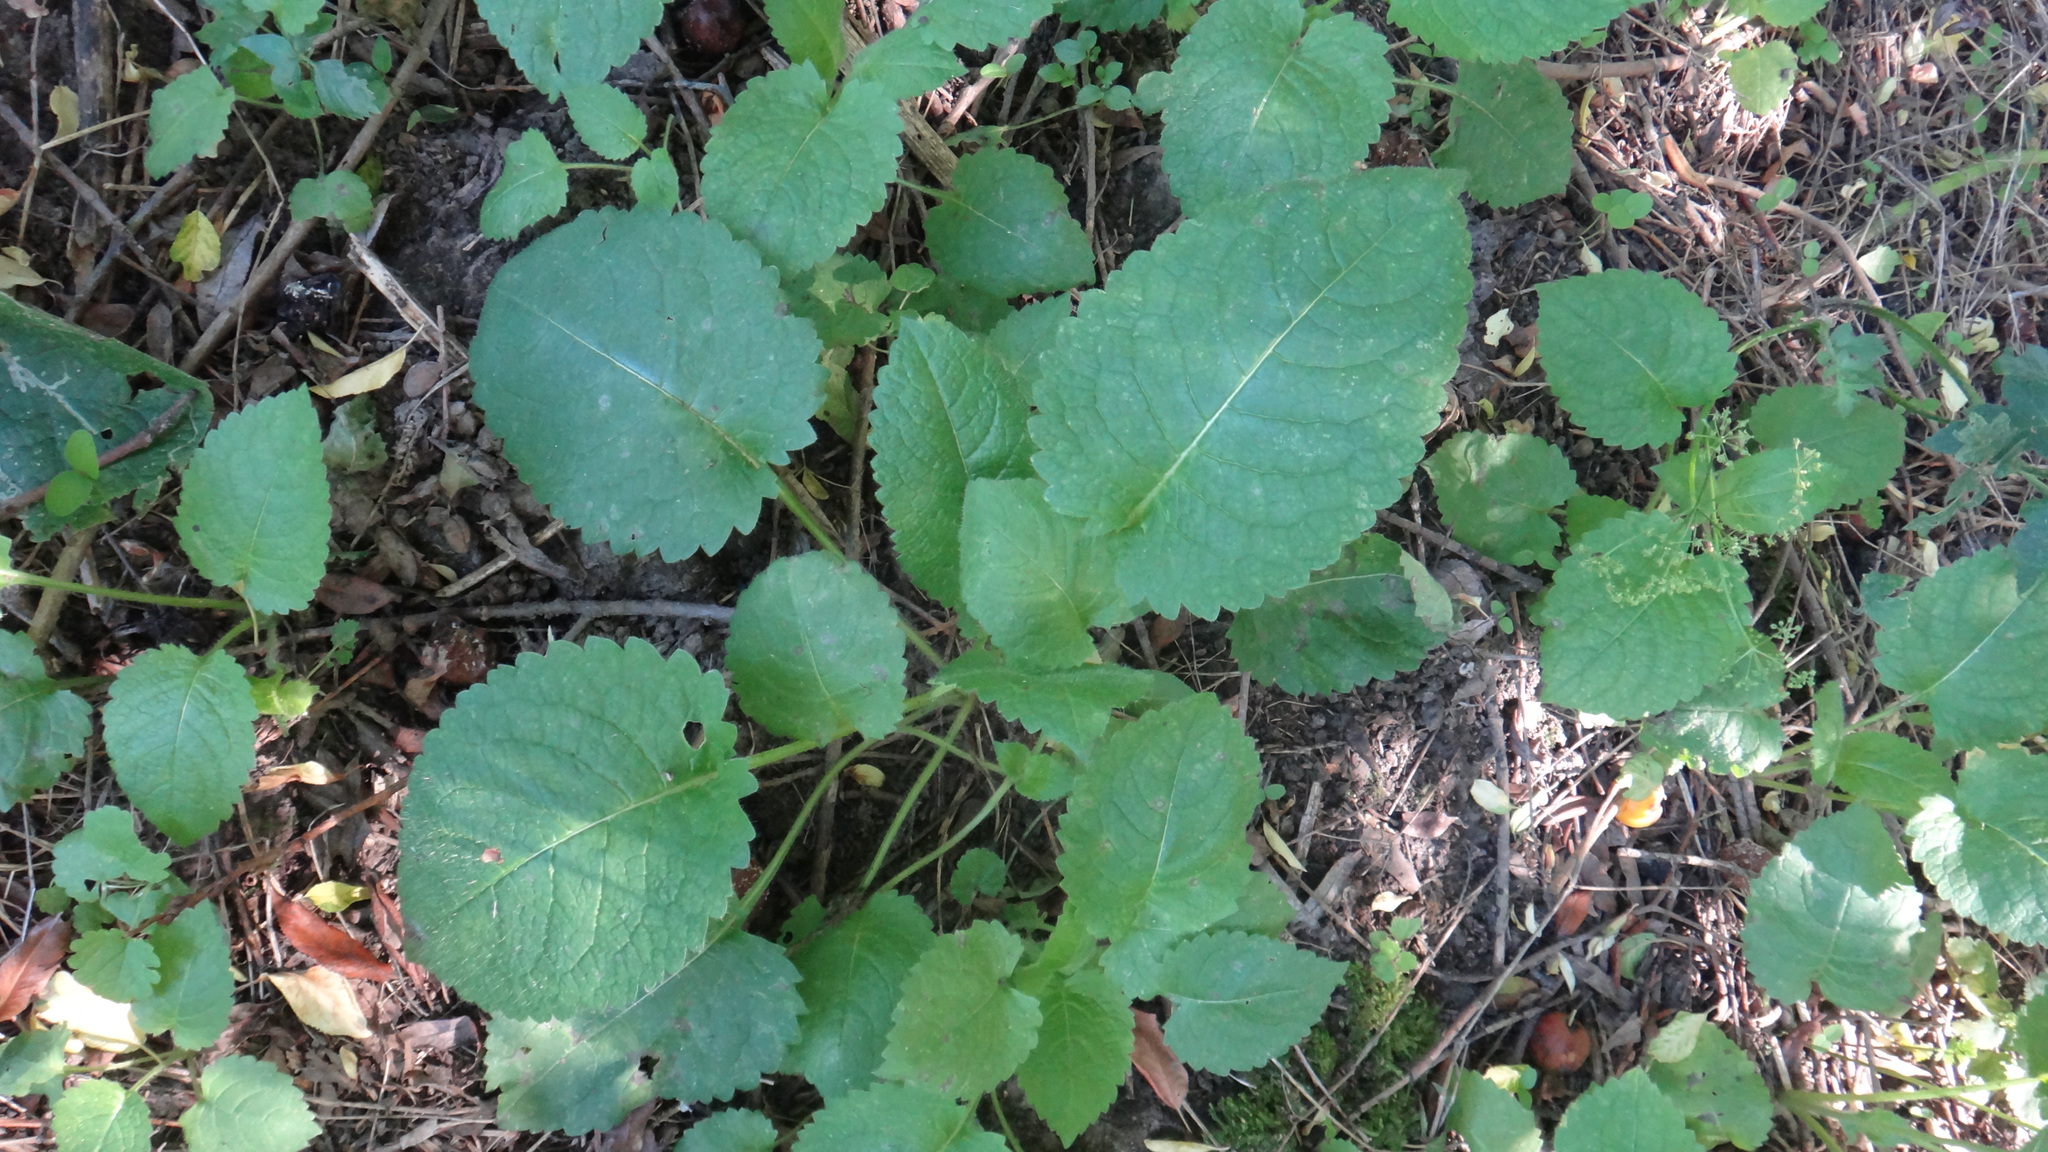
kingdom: Plantae
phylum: Tracheophyta
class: Magnoliopsida
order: Dipsacales
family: Caprifoliaceae
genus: Dipsacus
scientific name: Dipsacus pilosus
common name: Small teasel
